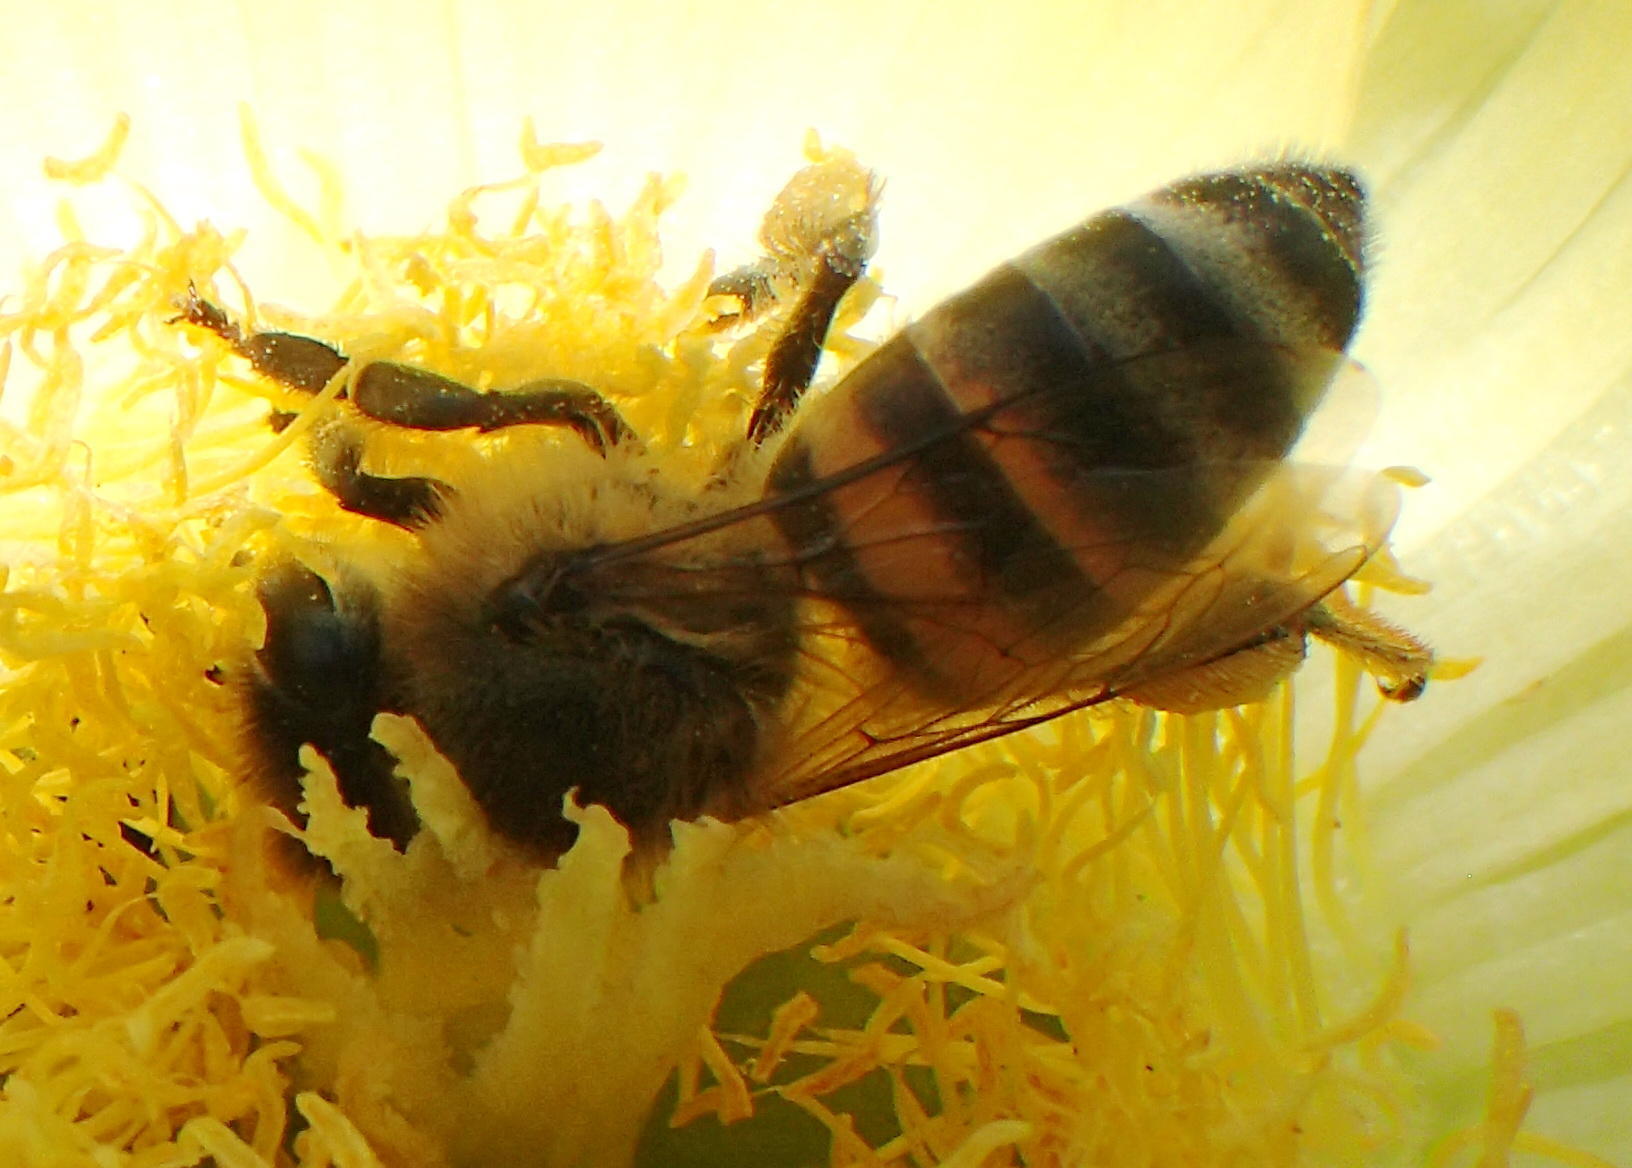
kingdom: Animalia
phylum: Arthropoda
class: Insecta
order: Hymenoptera
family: Apidae
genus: Apis
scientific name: Apis mellifera
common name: Honey bee
